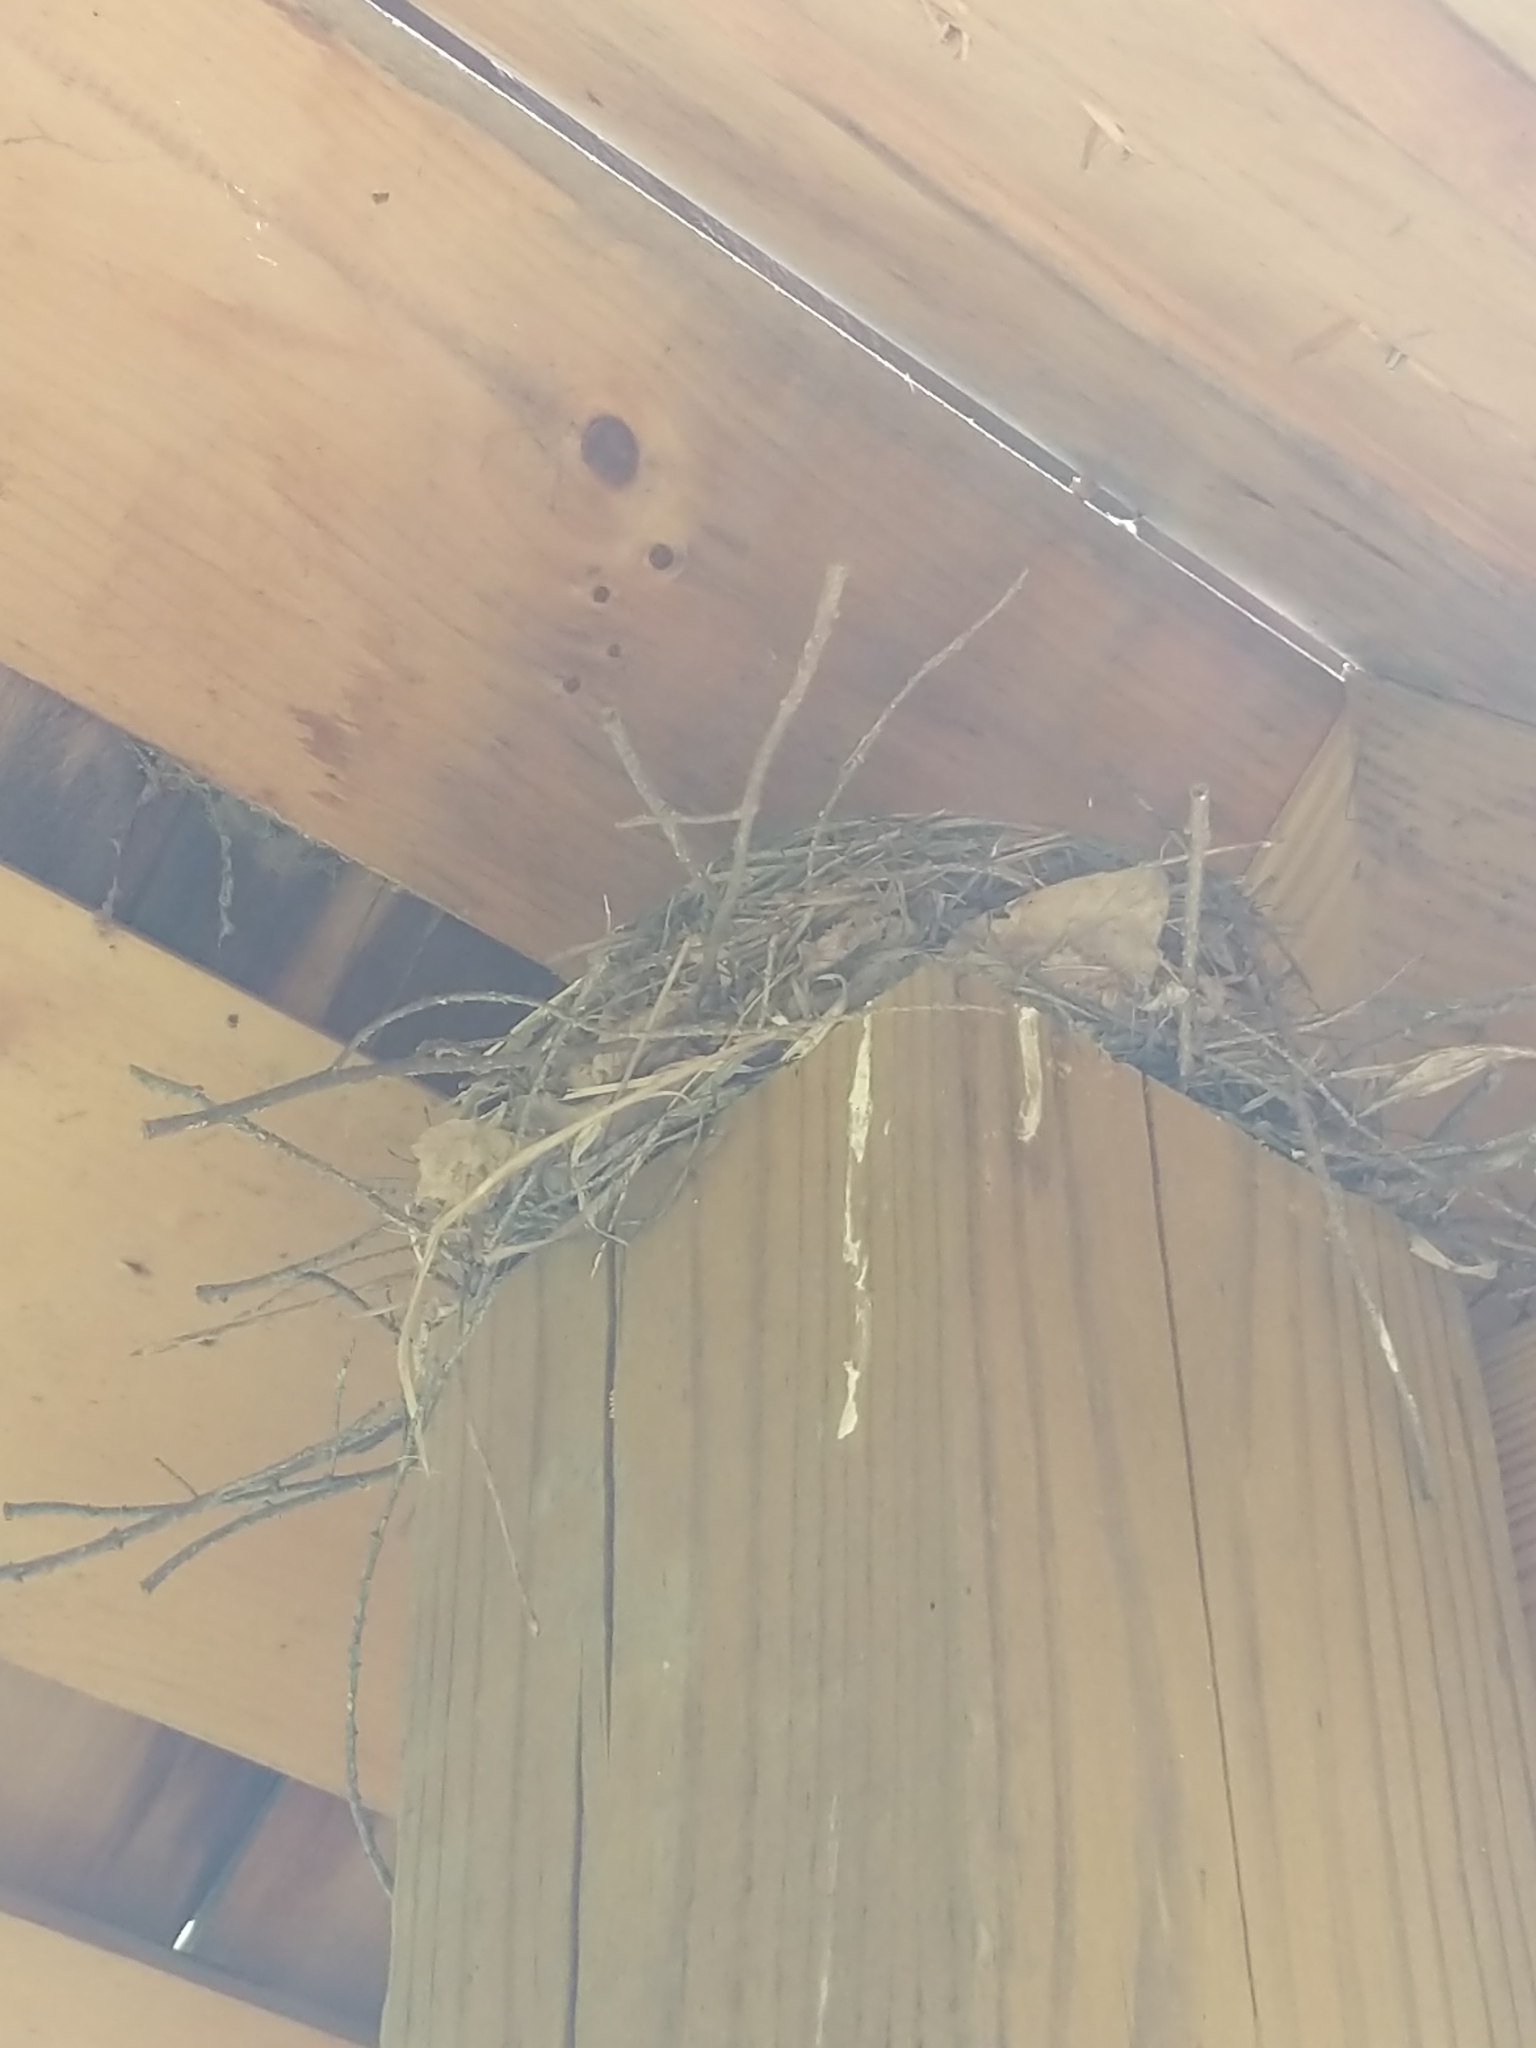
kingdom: Animalia
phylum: Chordata
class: Aves
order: Passeriformes
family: Passeridae
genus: Passer
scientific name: Passer domesticus
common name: House sparrow
